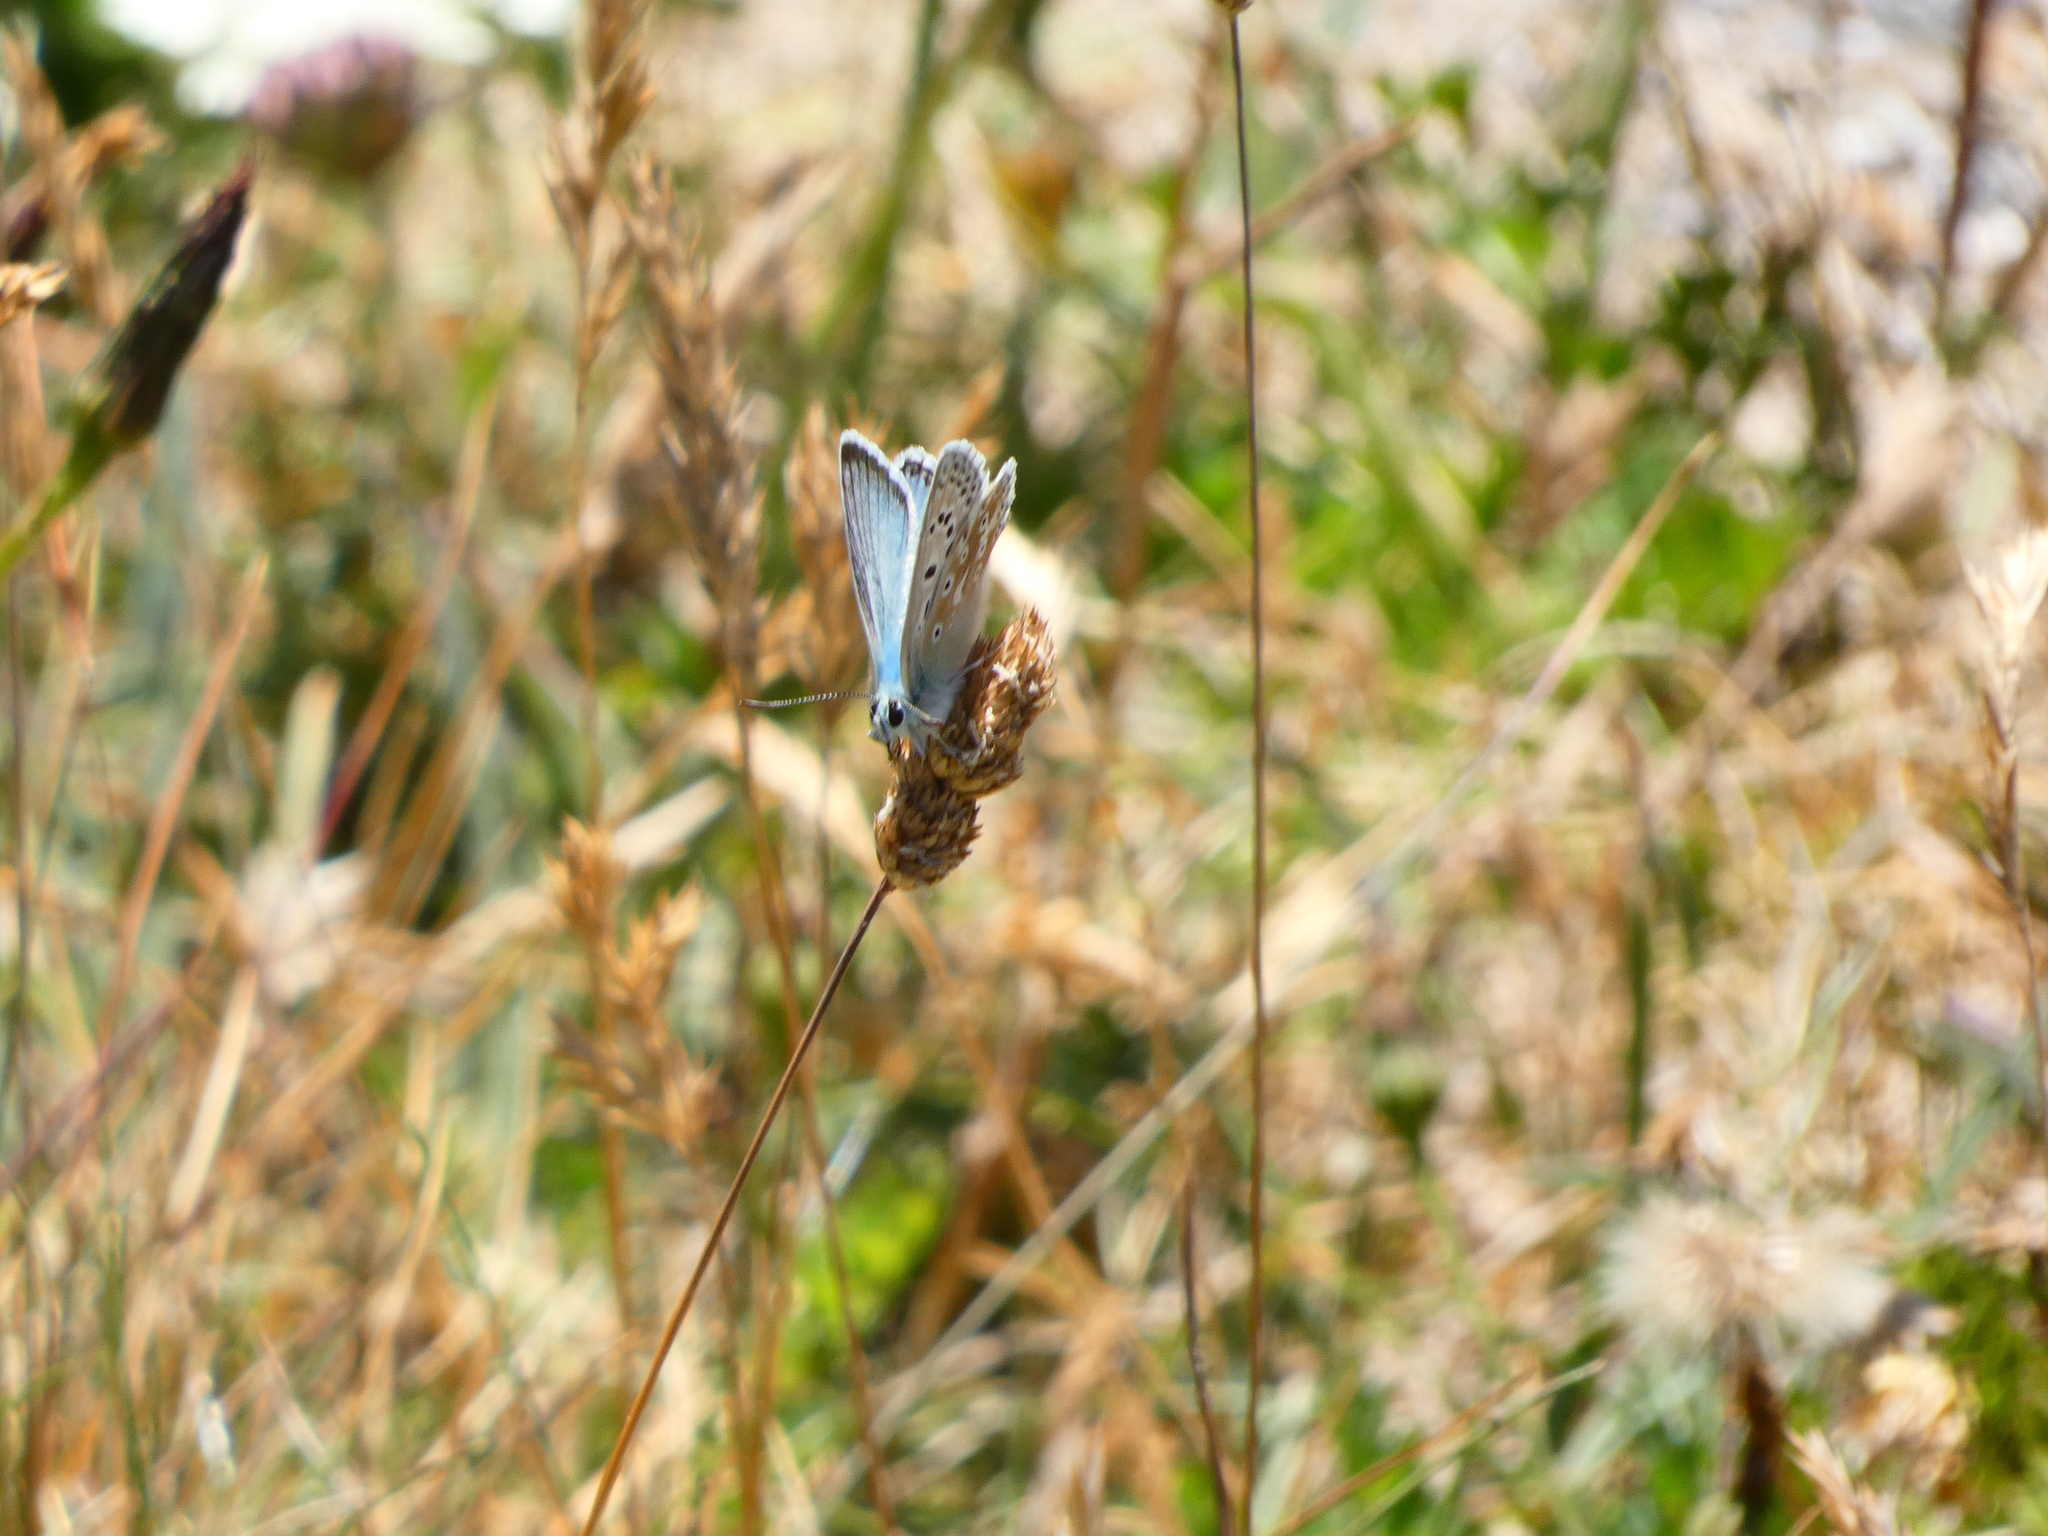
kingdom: Animalia
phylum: Arthropoda
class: Insecta
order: Lepidoptera
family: Lycaenidae
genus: Lysandra
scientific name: Lysandra coridon
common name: Chalkhill blue
